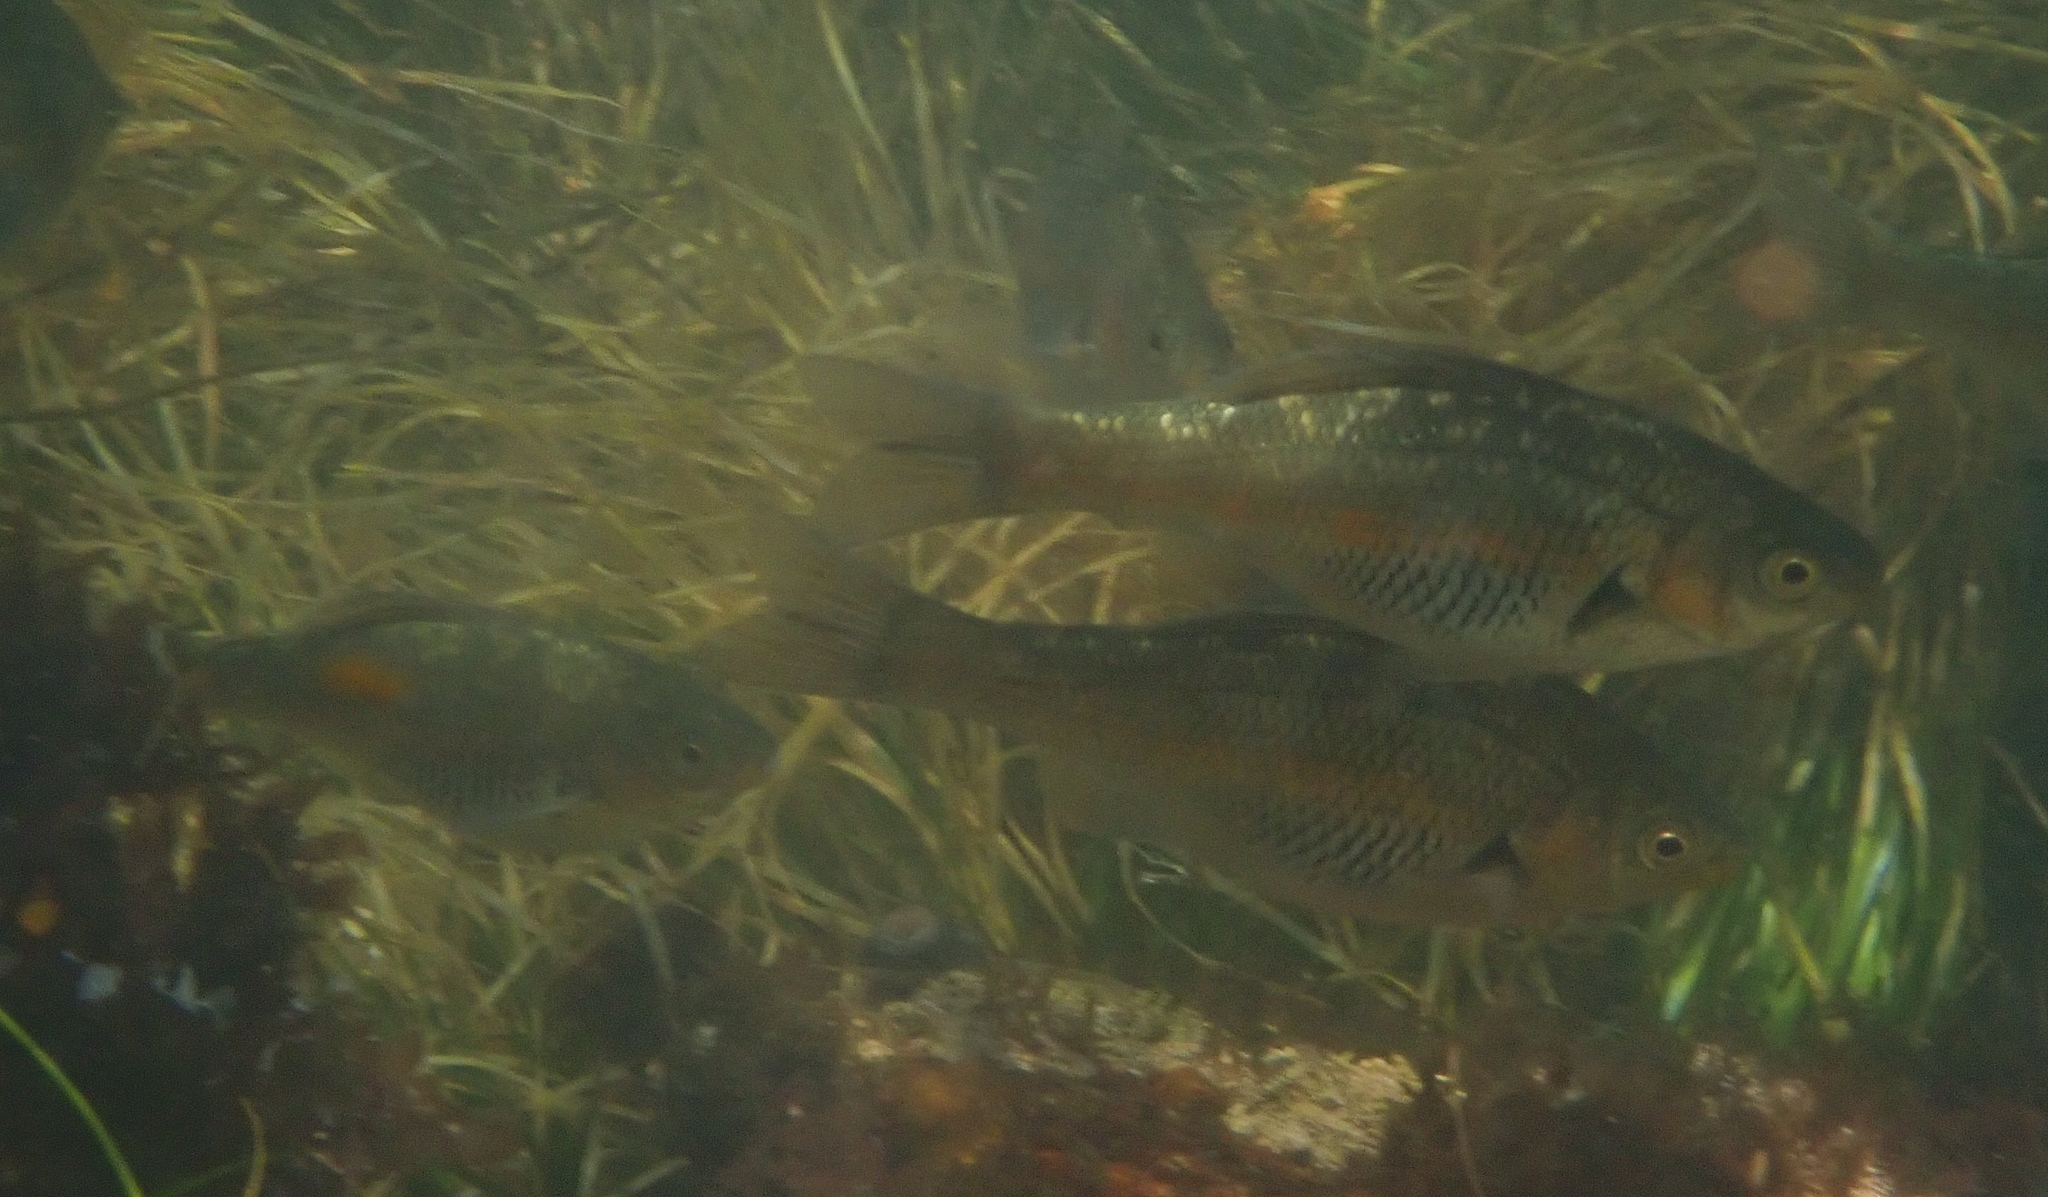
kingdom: Animalia
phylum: Chordata
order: Perciformes
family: Embiotocidae
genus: Micrometrus
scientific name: Micrometrus aurora
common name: Reef perch
